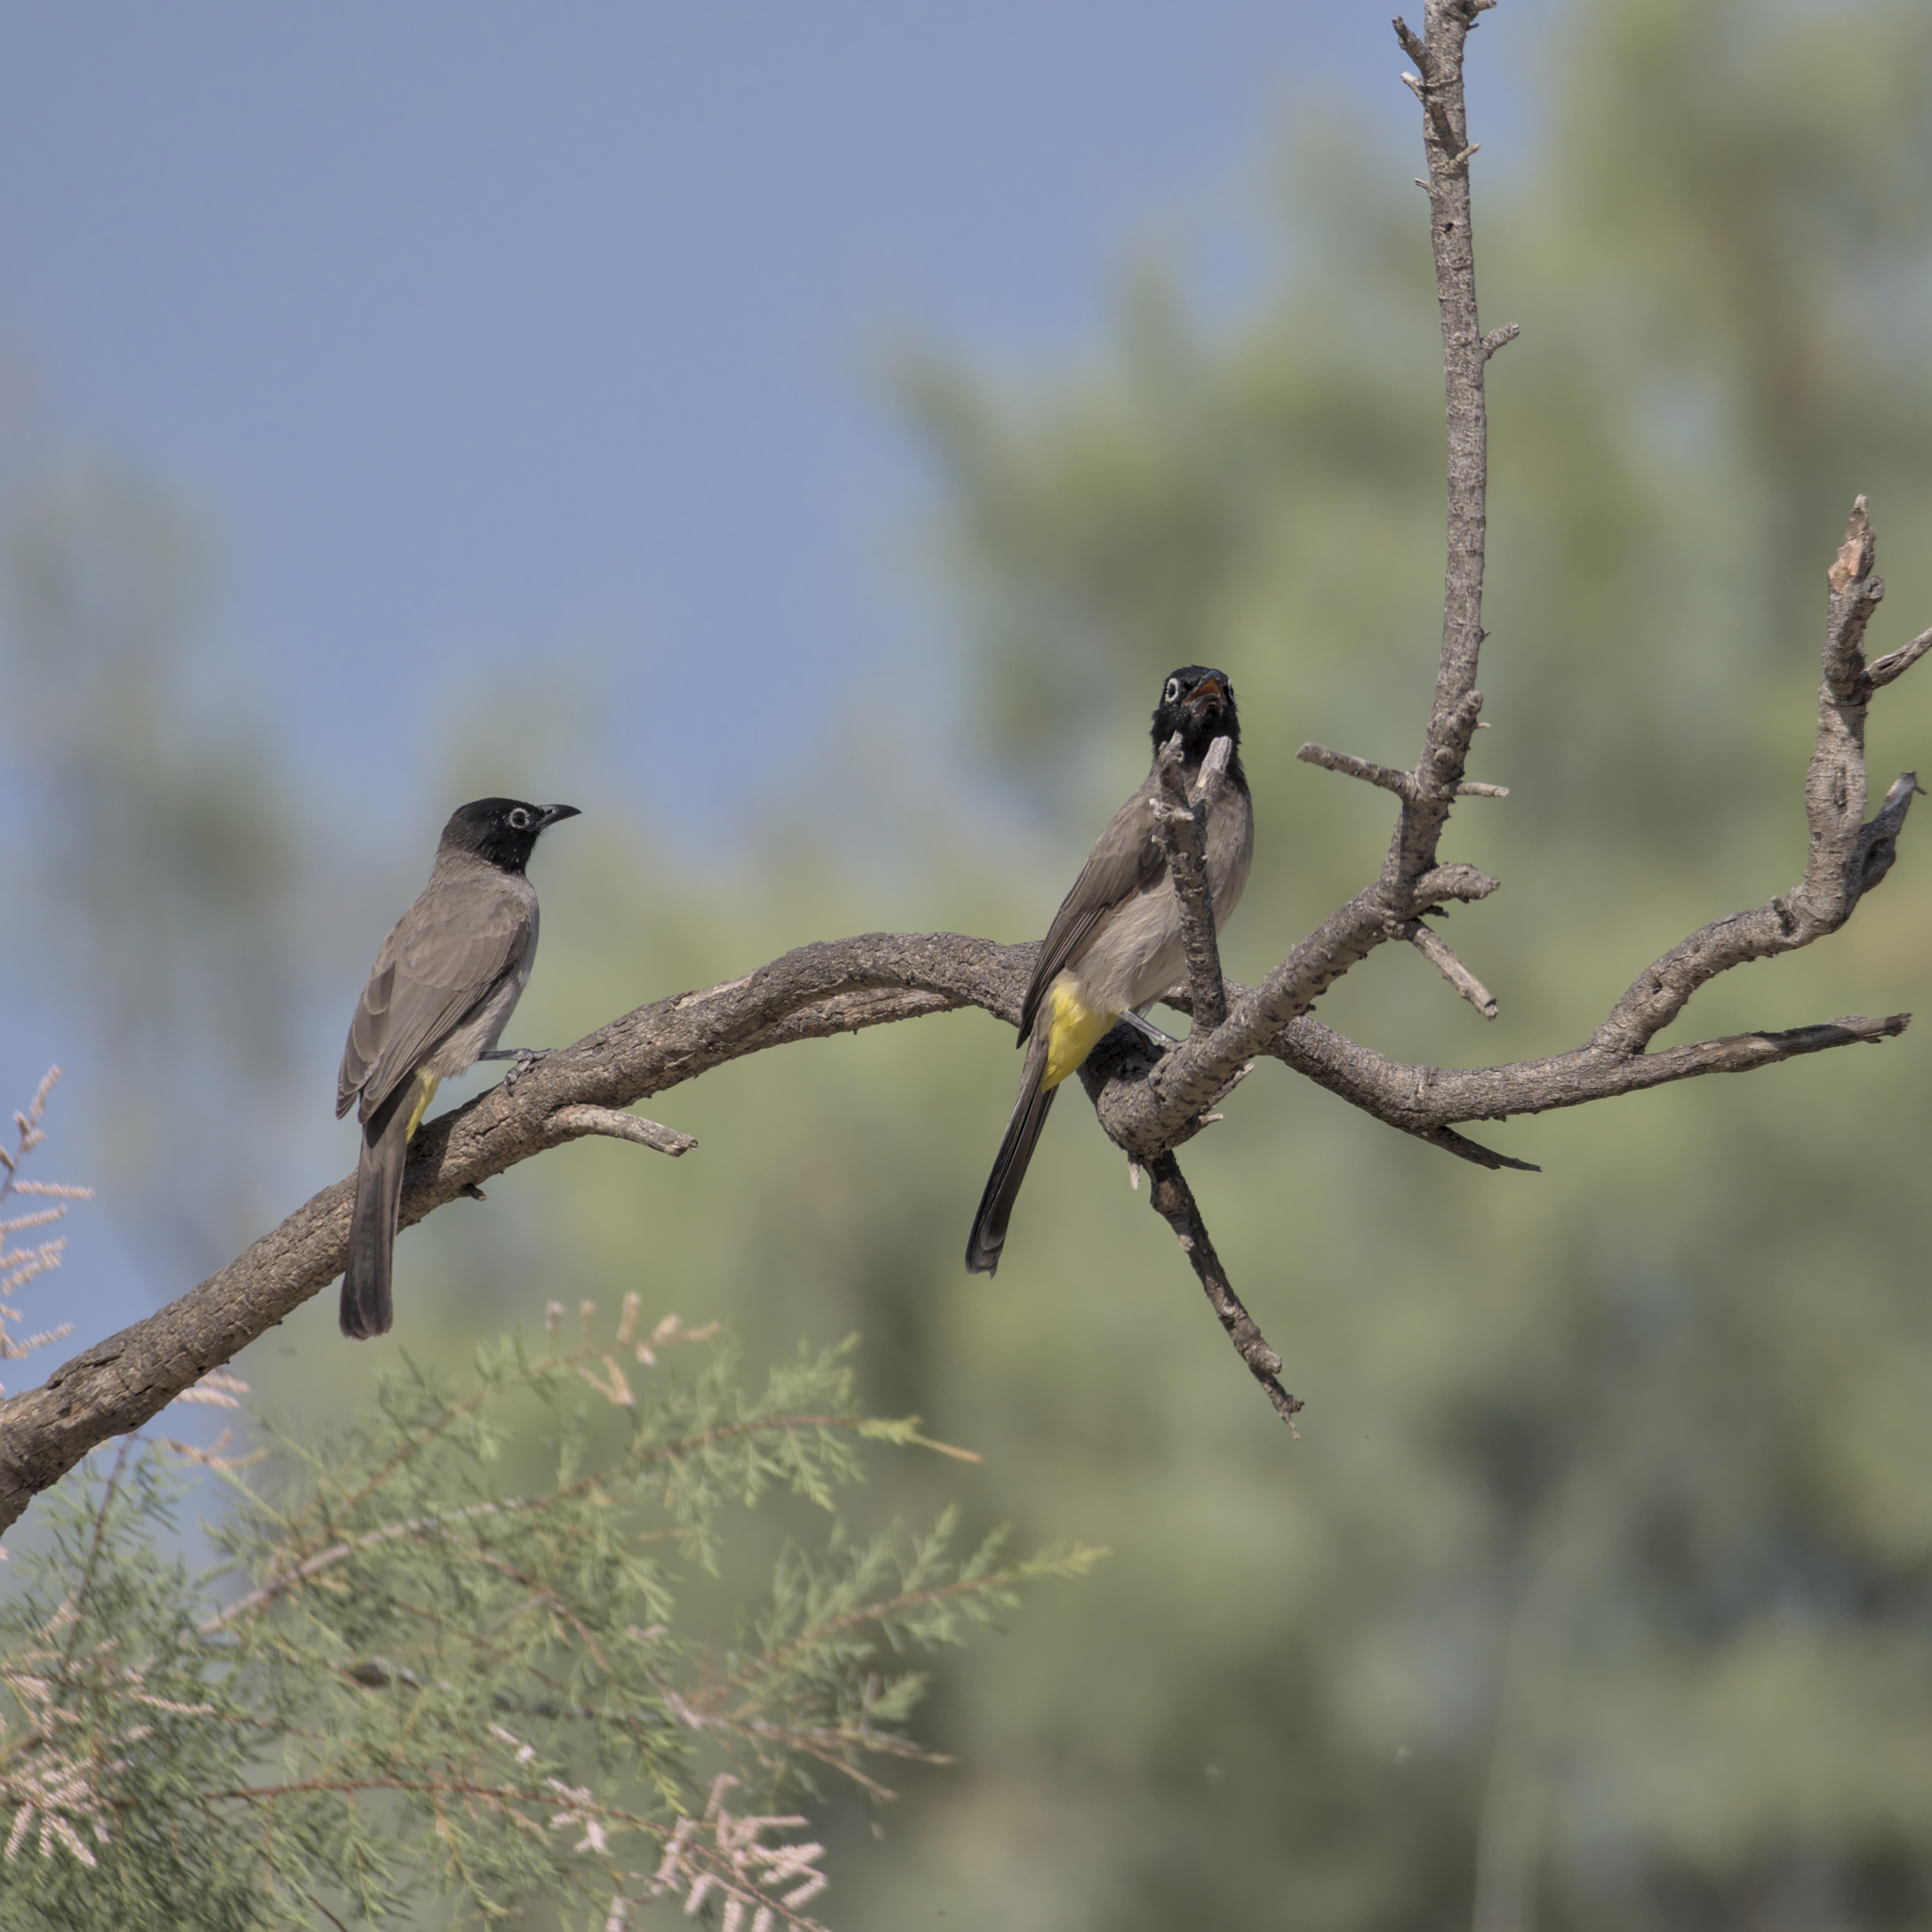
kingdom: Animalia
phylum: Chordata
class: Aves
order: Passeriformes
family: Pycnonotidae
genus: Pycnonotus
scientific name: Pycnonotus xanthopygos
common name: White-spectacled bulbul
